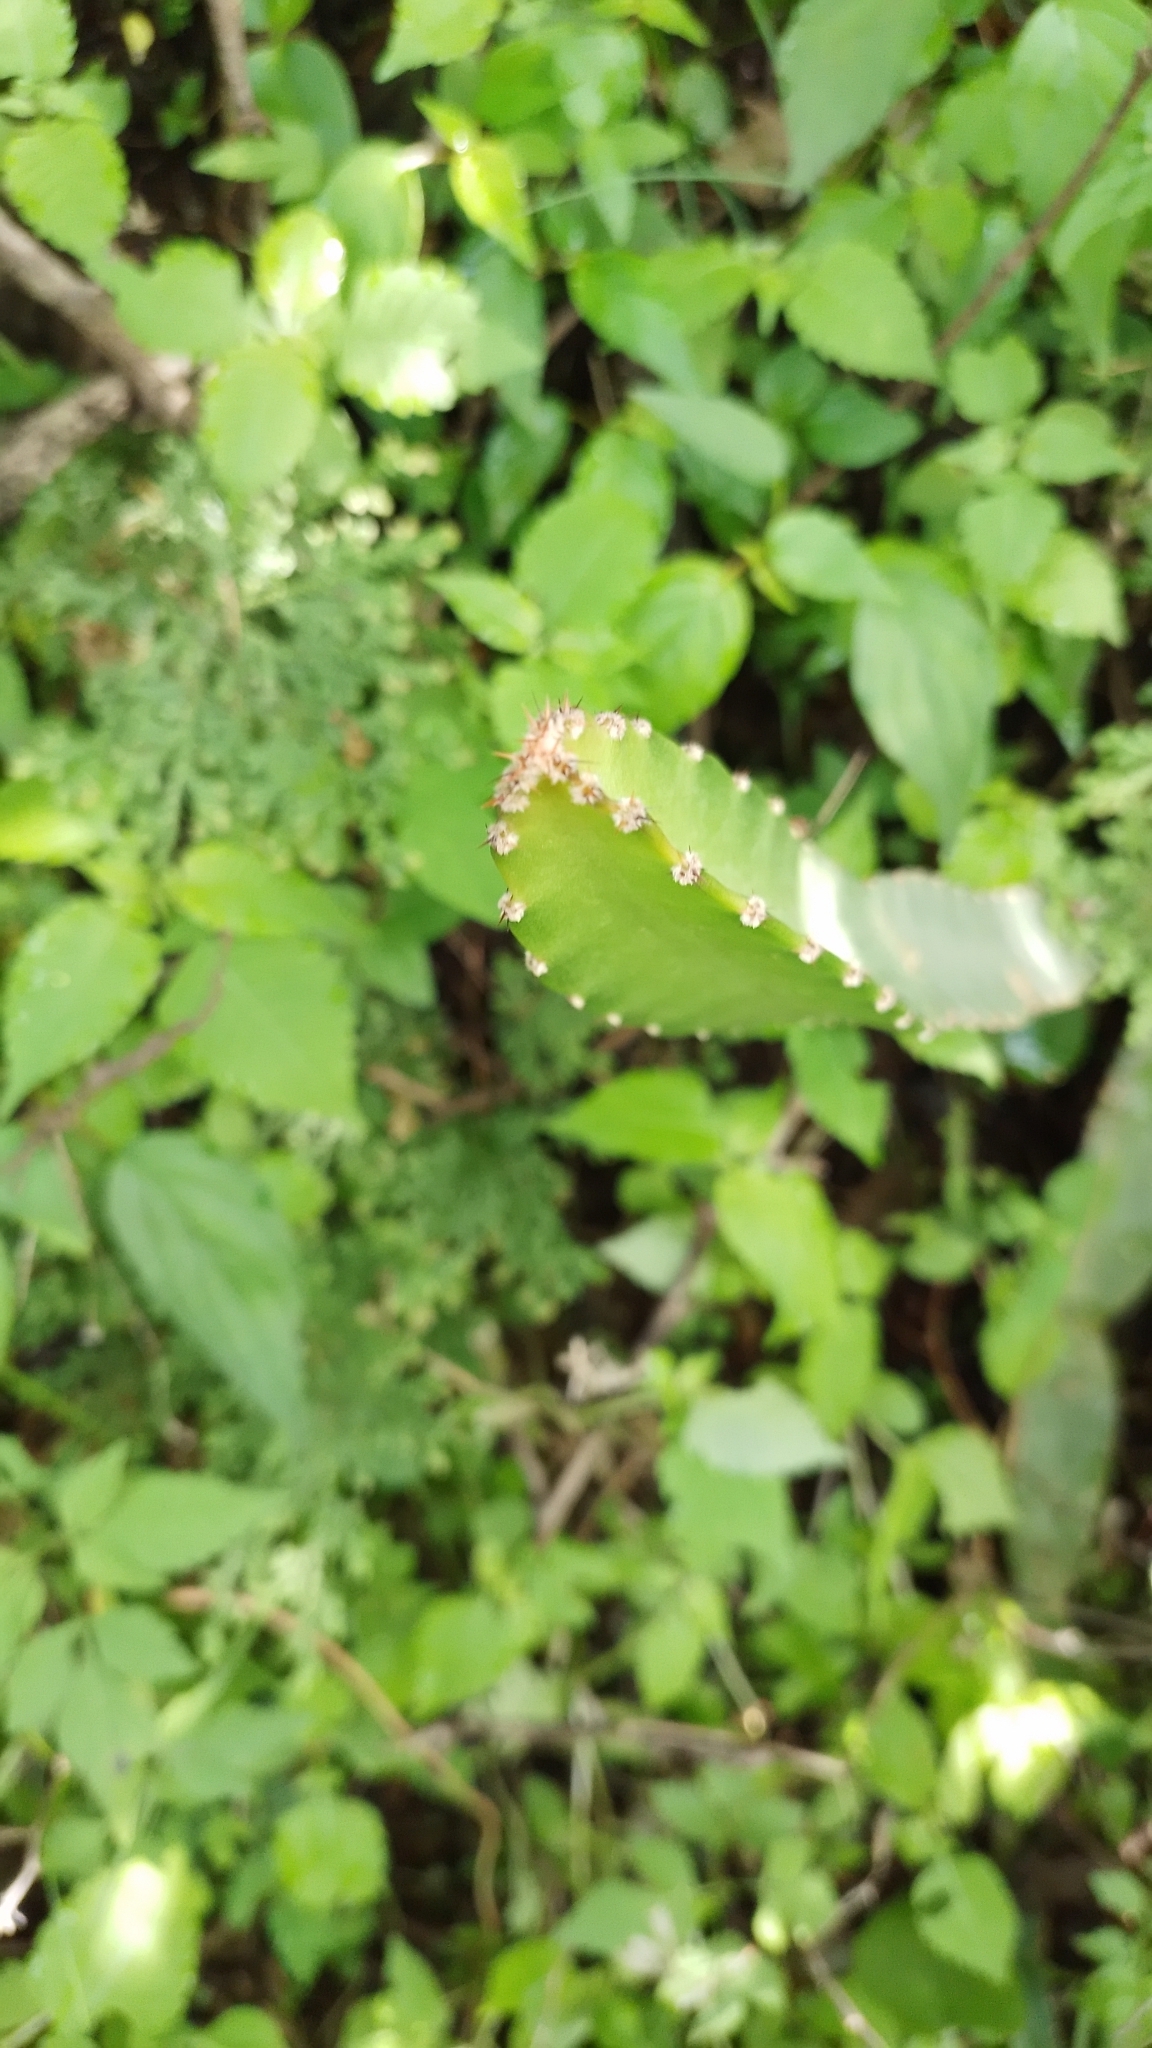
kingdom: Plantae
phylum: Tracheophyta
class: Magnoliopsida
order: Caryophyllales
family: Cactaceae
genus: Selenicereus
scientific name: Selenicereus ocamponis
